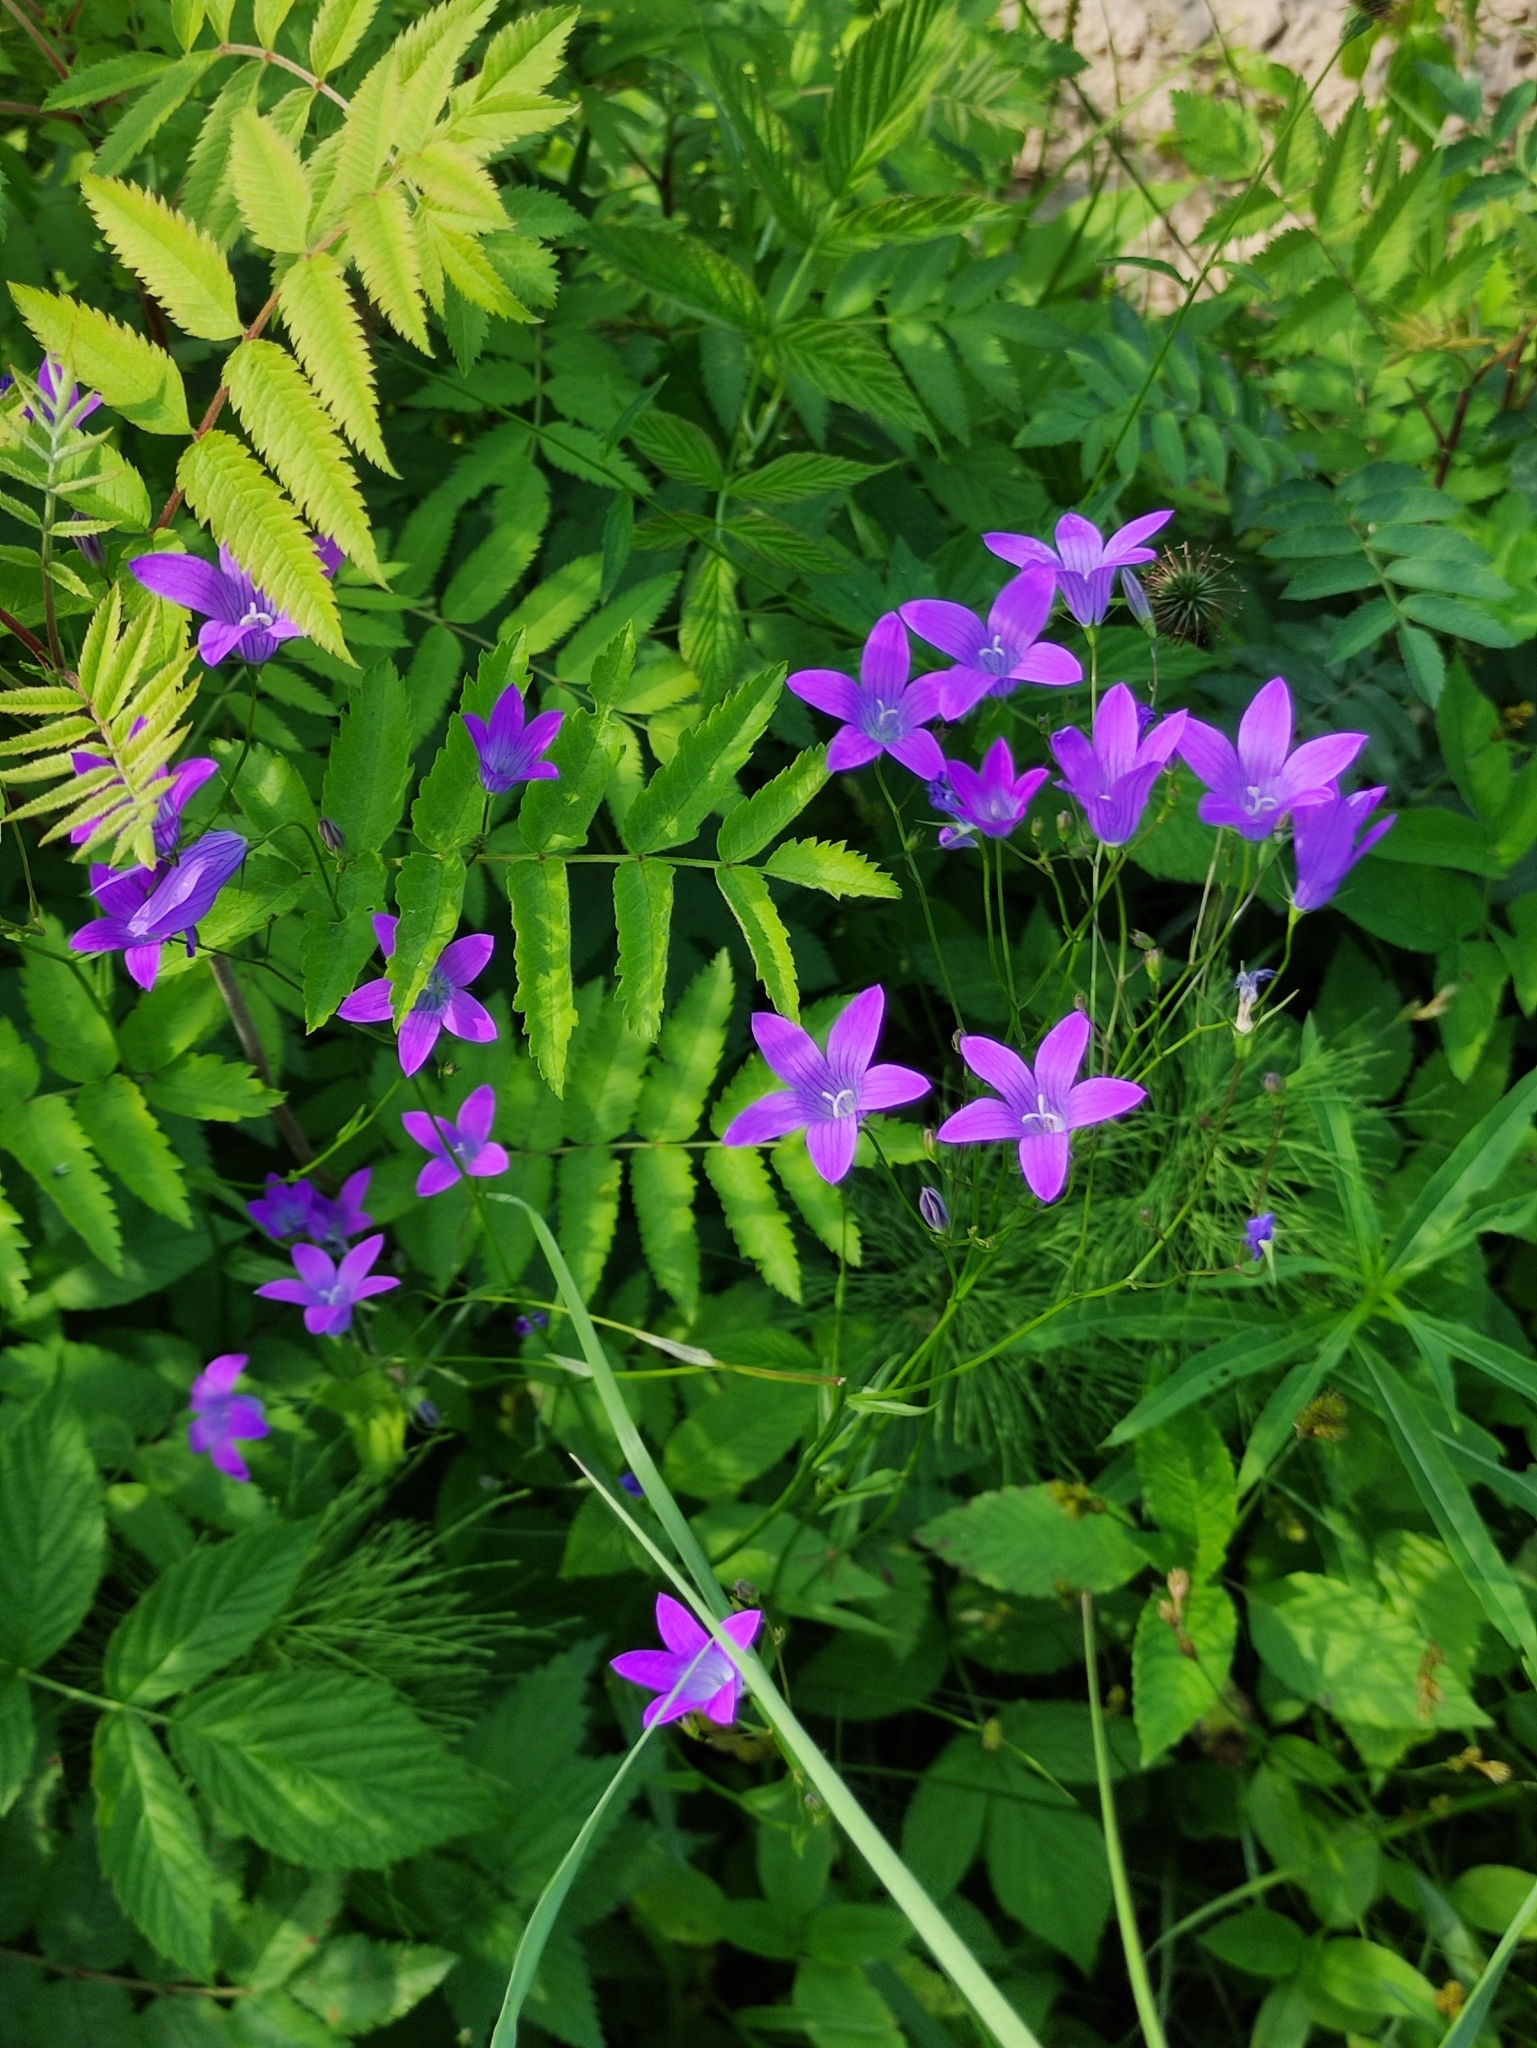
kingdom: Plantae
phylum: Tracheophyta
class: Magnoliopsida
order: Asterales
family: Campanulaceae
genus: Campanula
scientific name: Campanula patula
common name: Spreading bellflower
